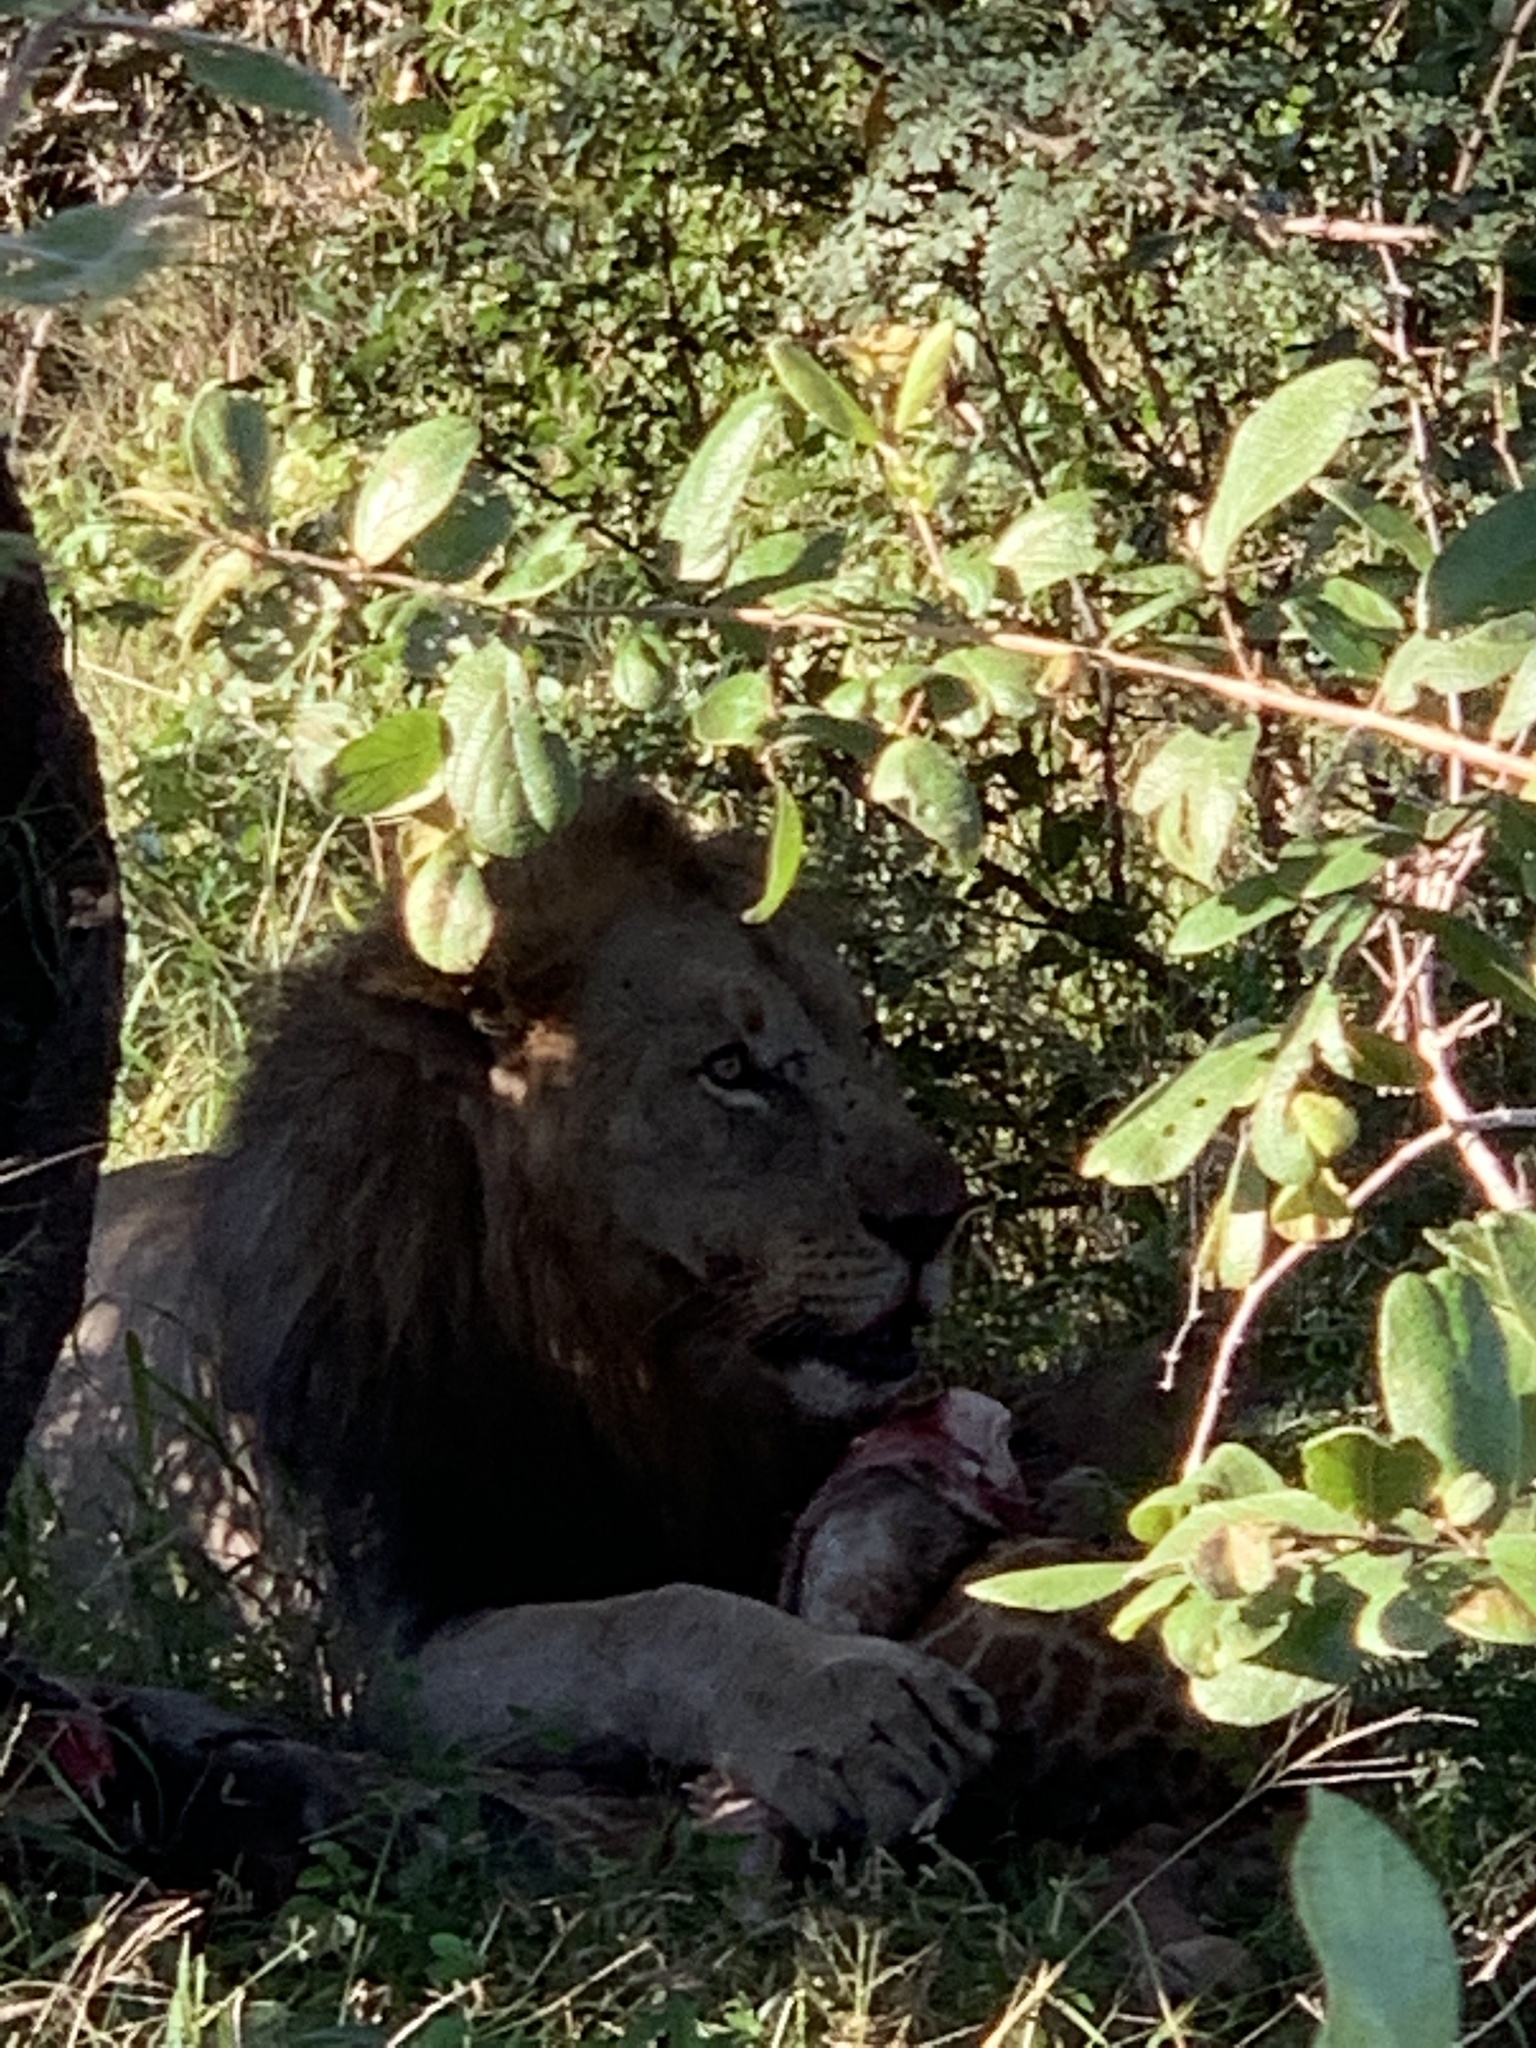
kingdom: Animalia
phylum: Chordata
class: Mammalia
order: Carnivora
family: Felidae
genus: Panthera
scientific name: Panthera leo
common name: Lion
